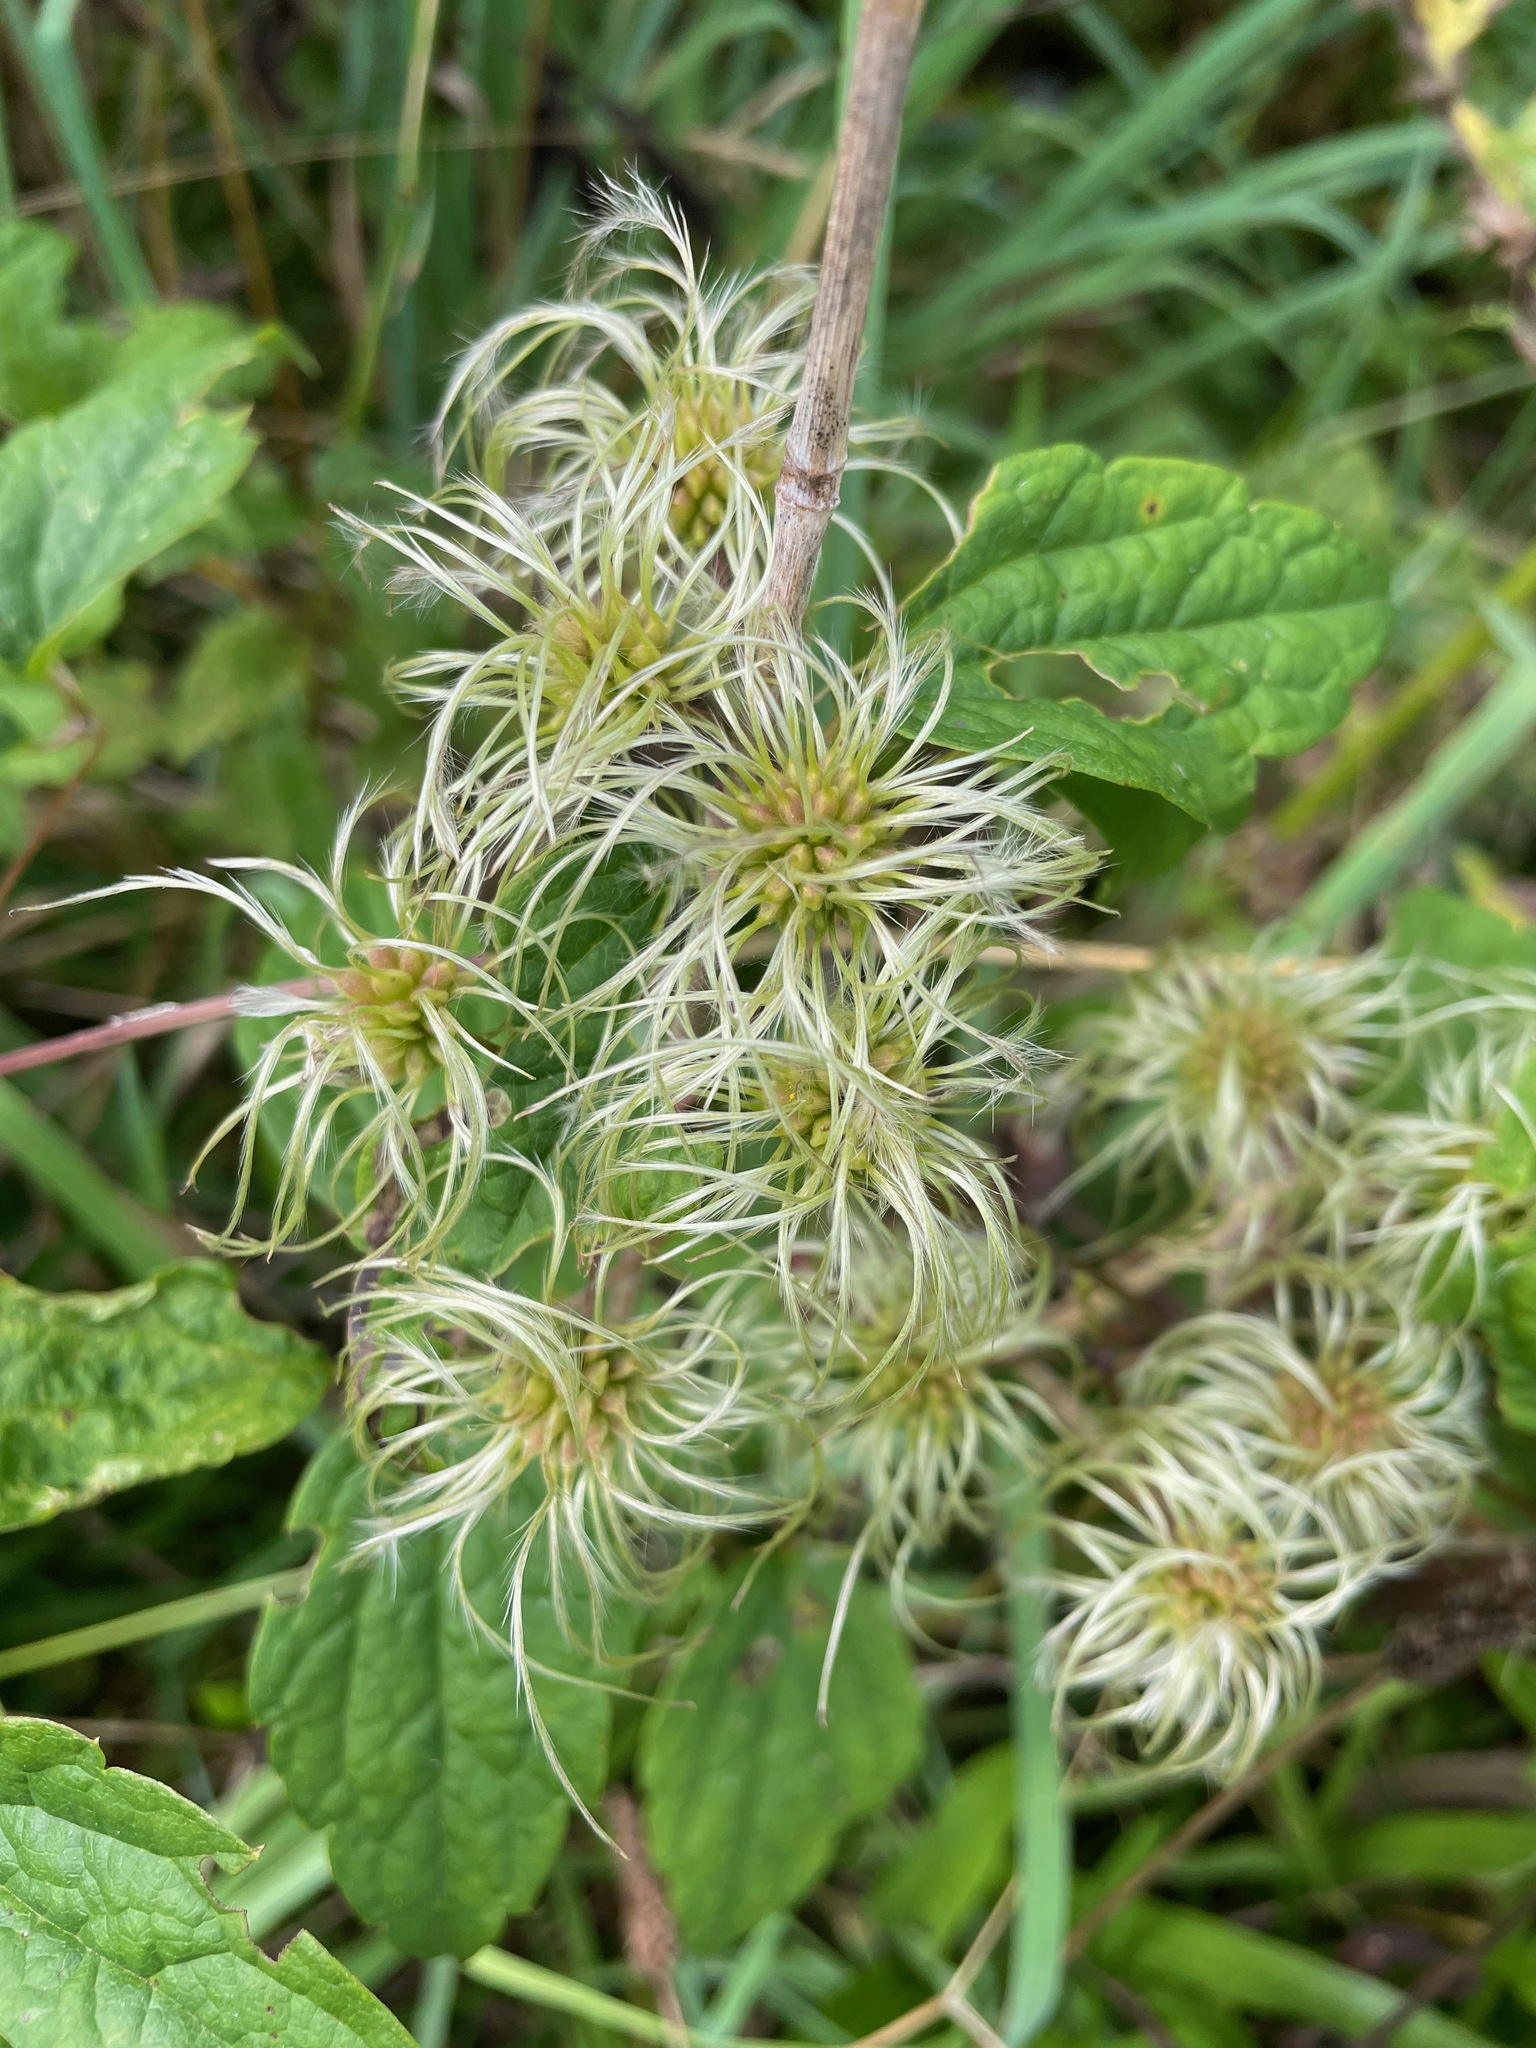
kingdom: Plantae
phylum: Tracheophyta
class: Magnoliopsida
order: Ranunculales
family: Ranunculaceae
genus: Clematis
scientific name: Clematis virginiana
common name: Virgin's-bower
